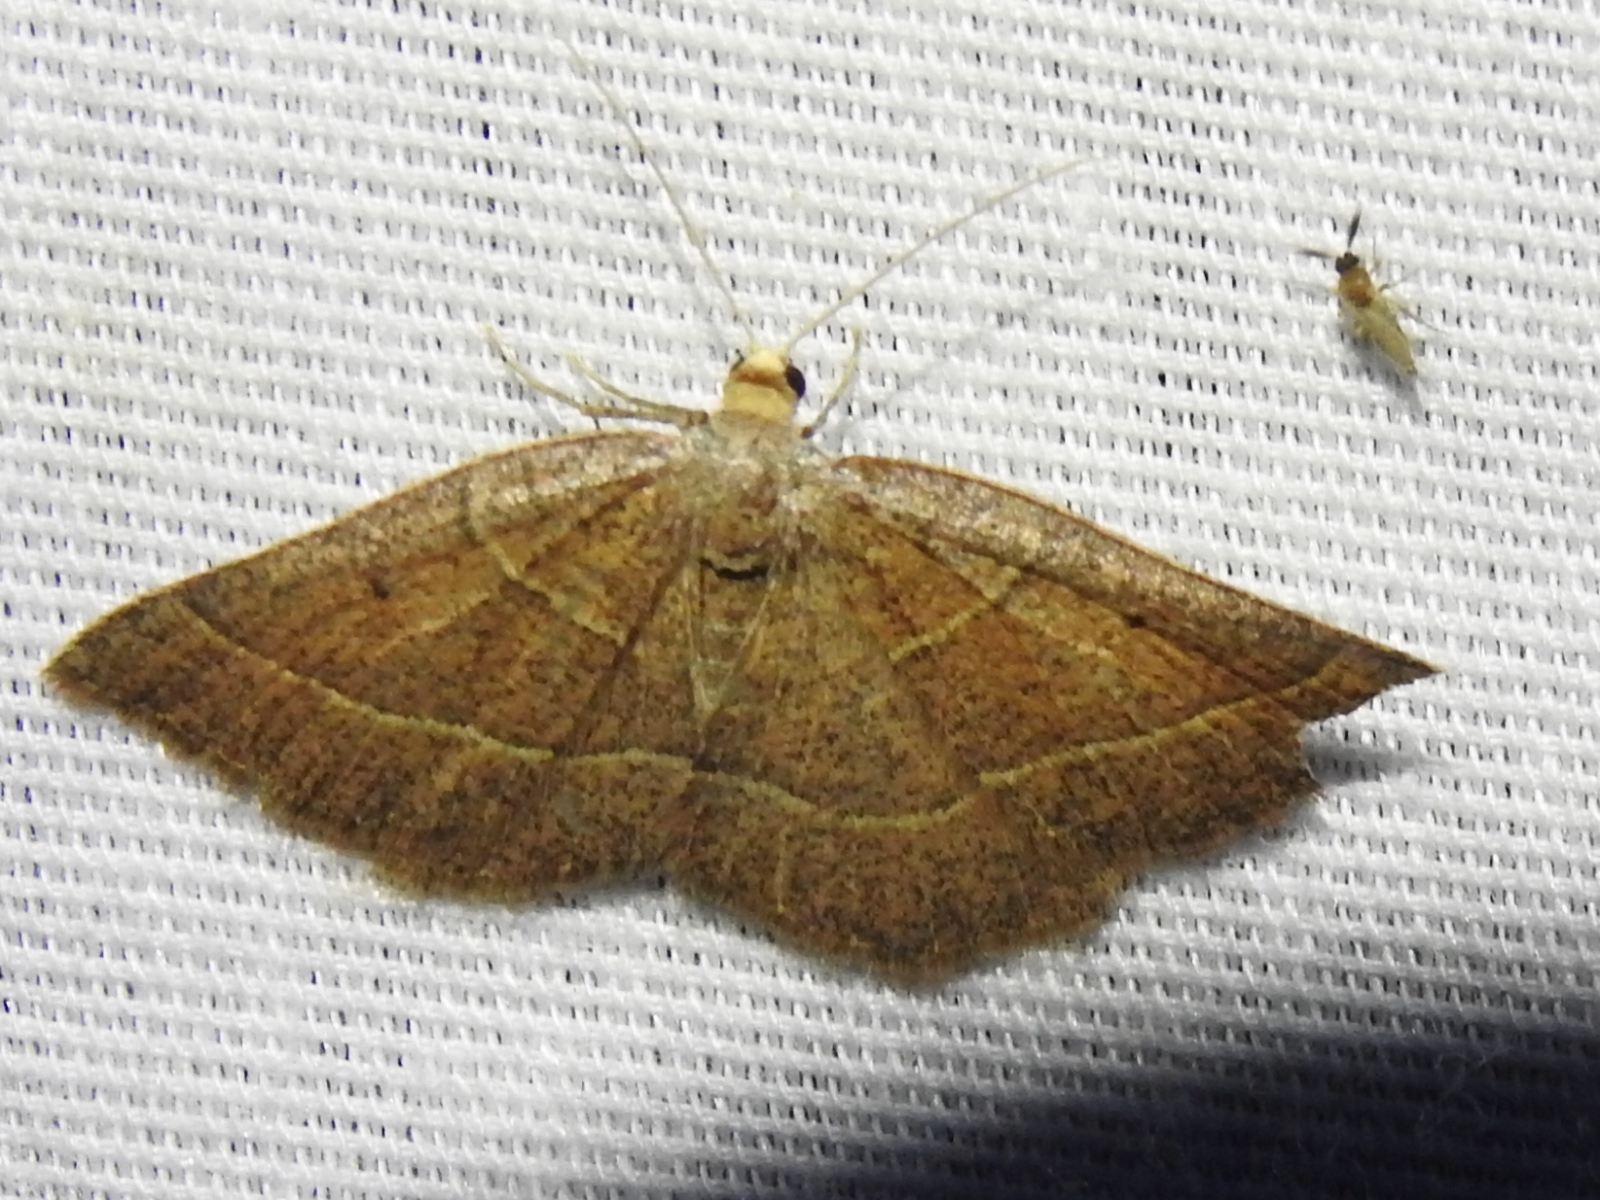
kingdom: Animalia
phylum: Arthropoda
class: Insecta
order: Lepidoptera
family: Geometridae
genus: Episemasia
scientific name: Episemasia cervinaria
